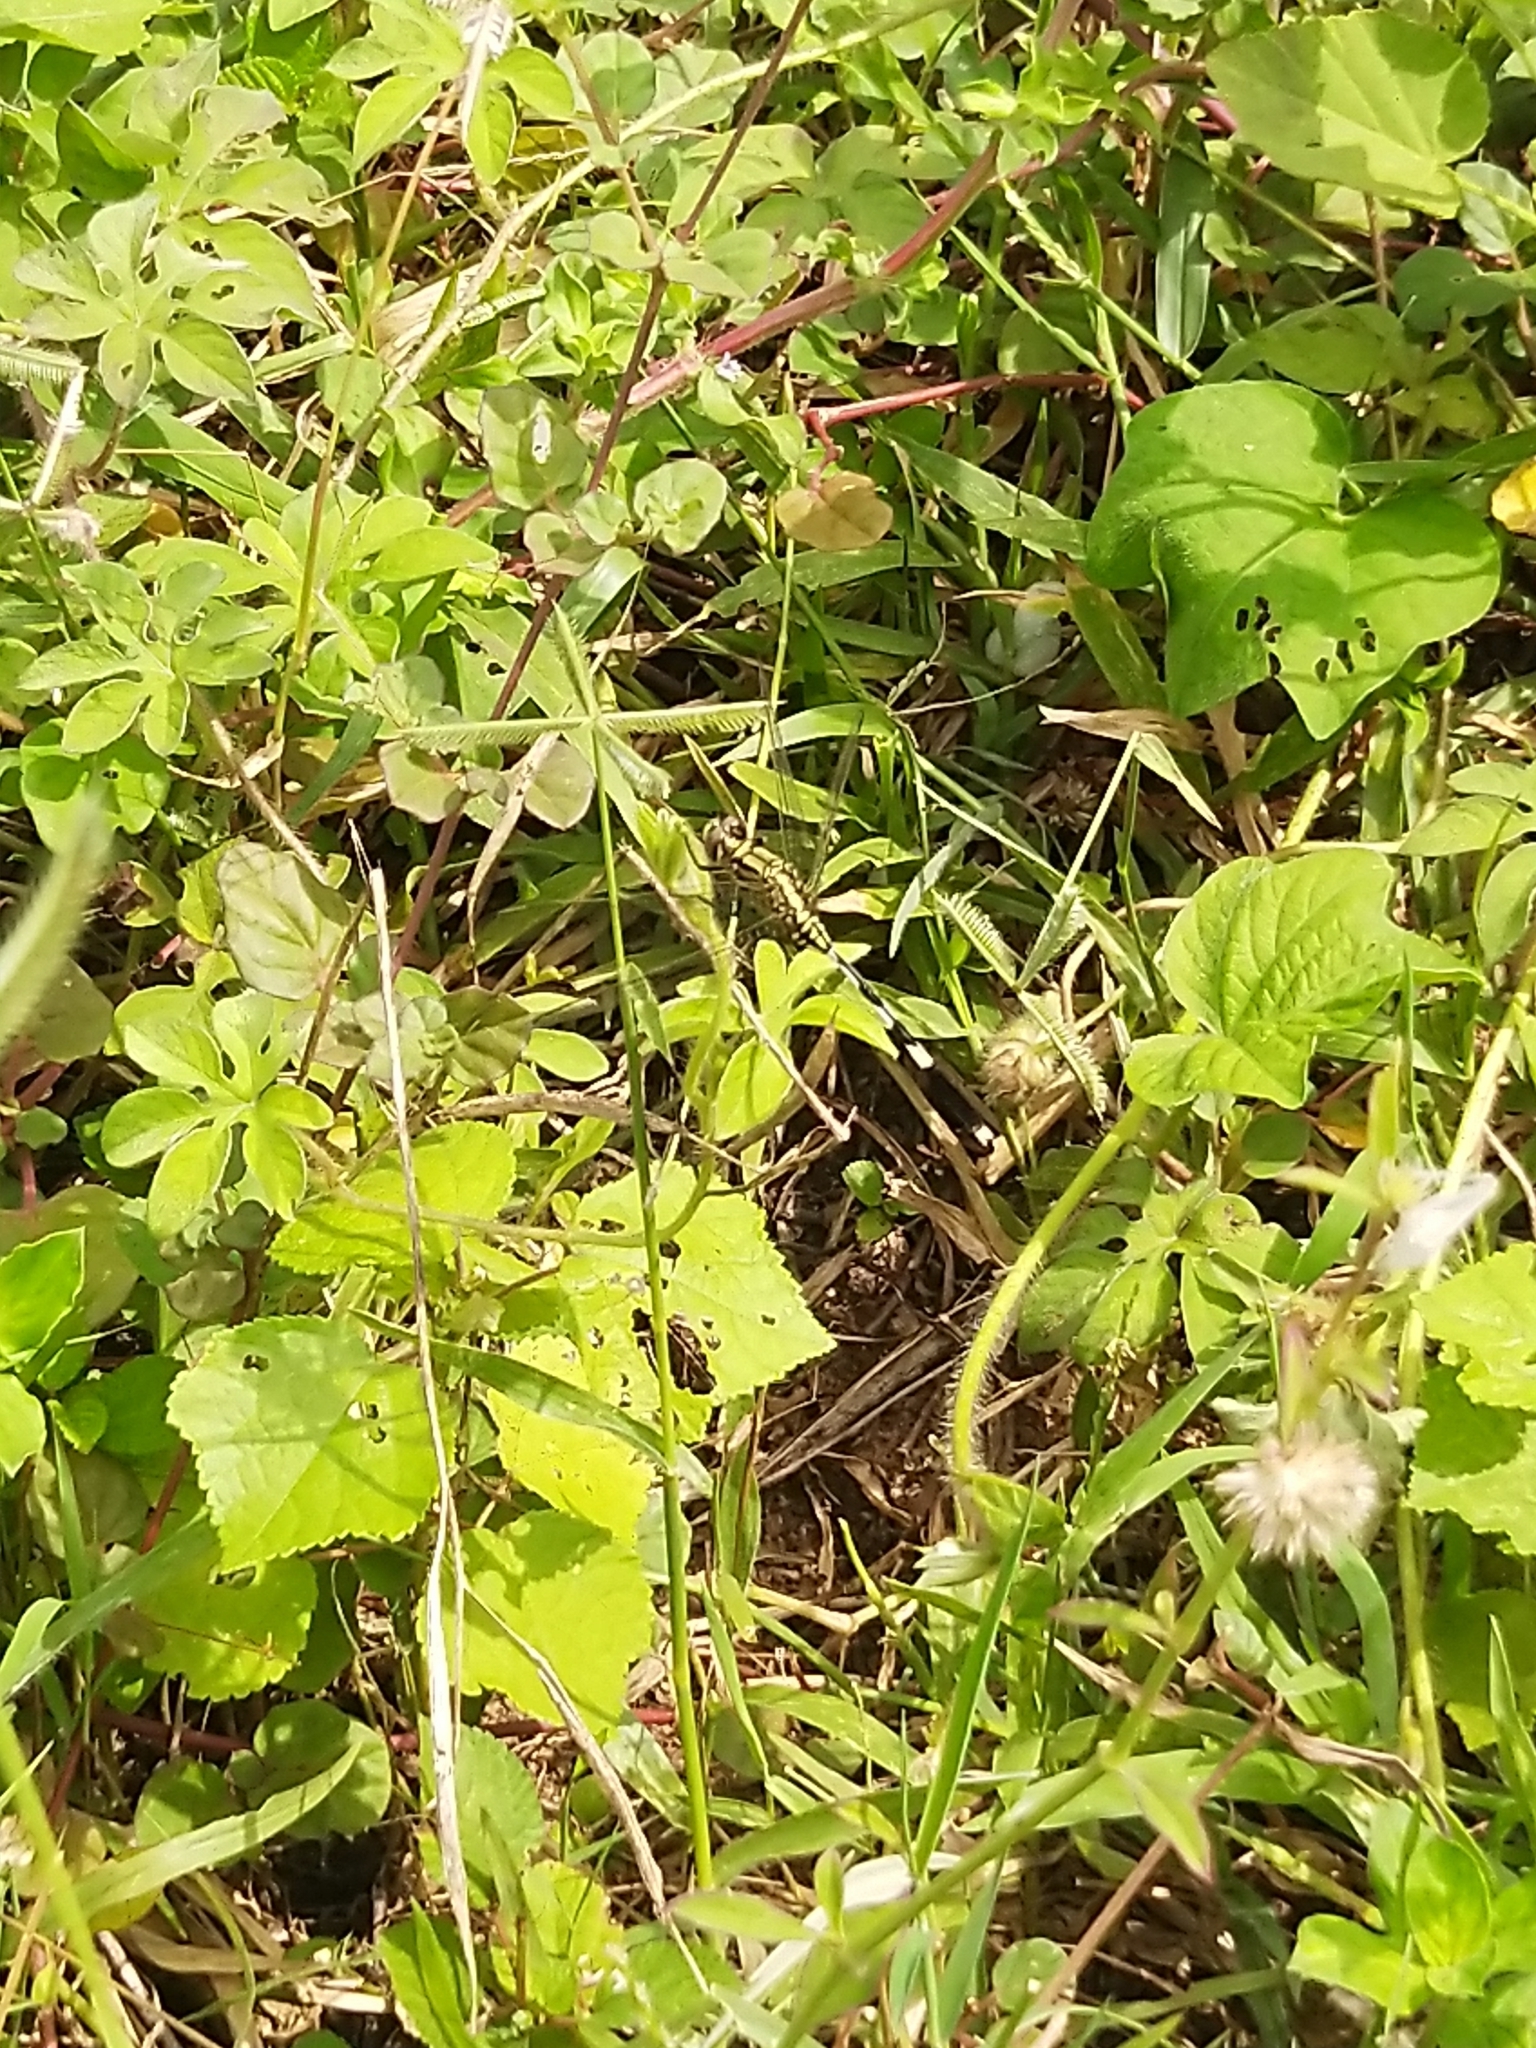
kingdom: Animalia
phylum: Arthropoda
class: Insecta
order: Odonata
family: Libellulidae
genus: Orthetrum
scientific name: Orthetrum sabina
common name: Slender skimmer
